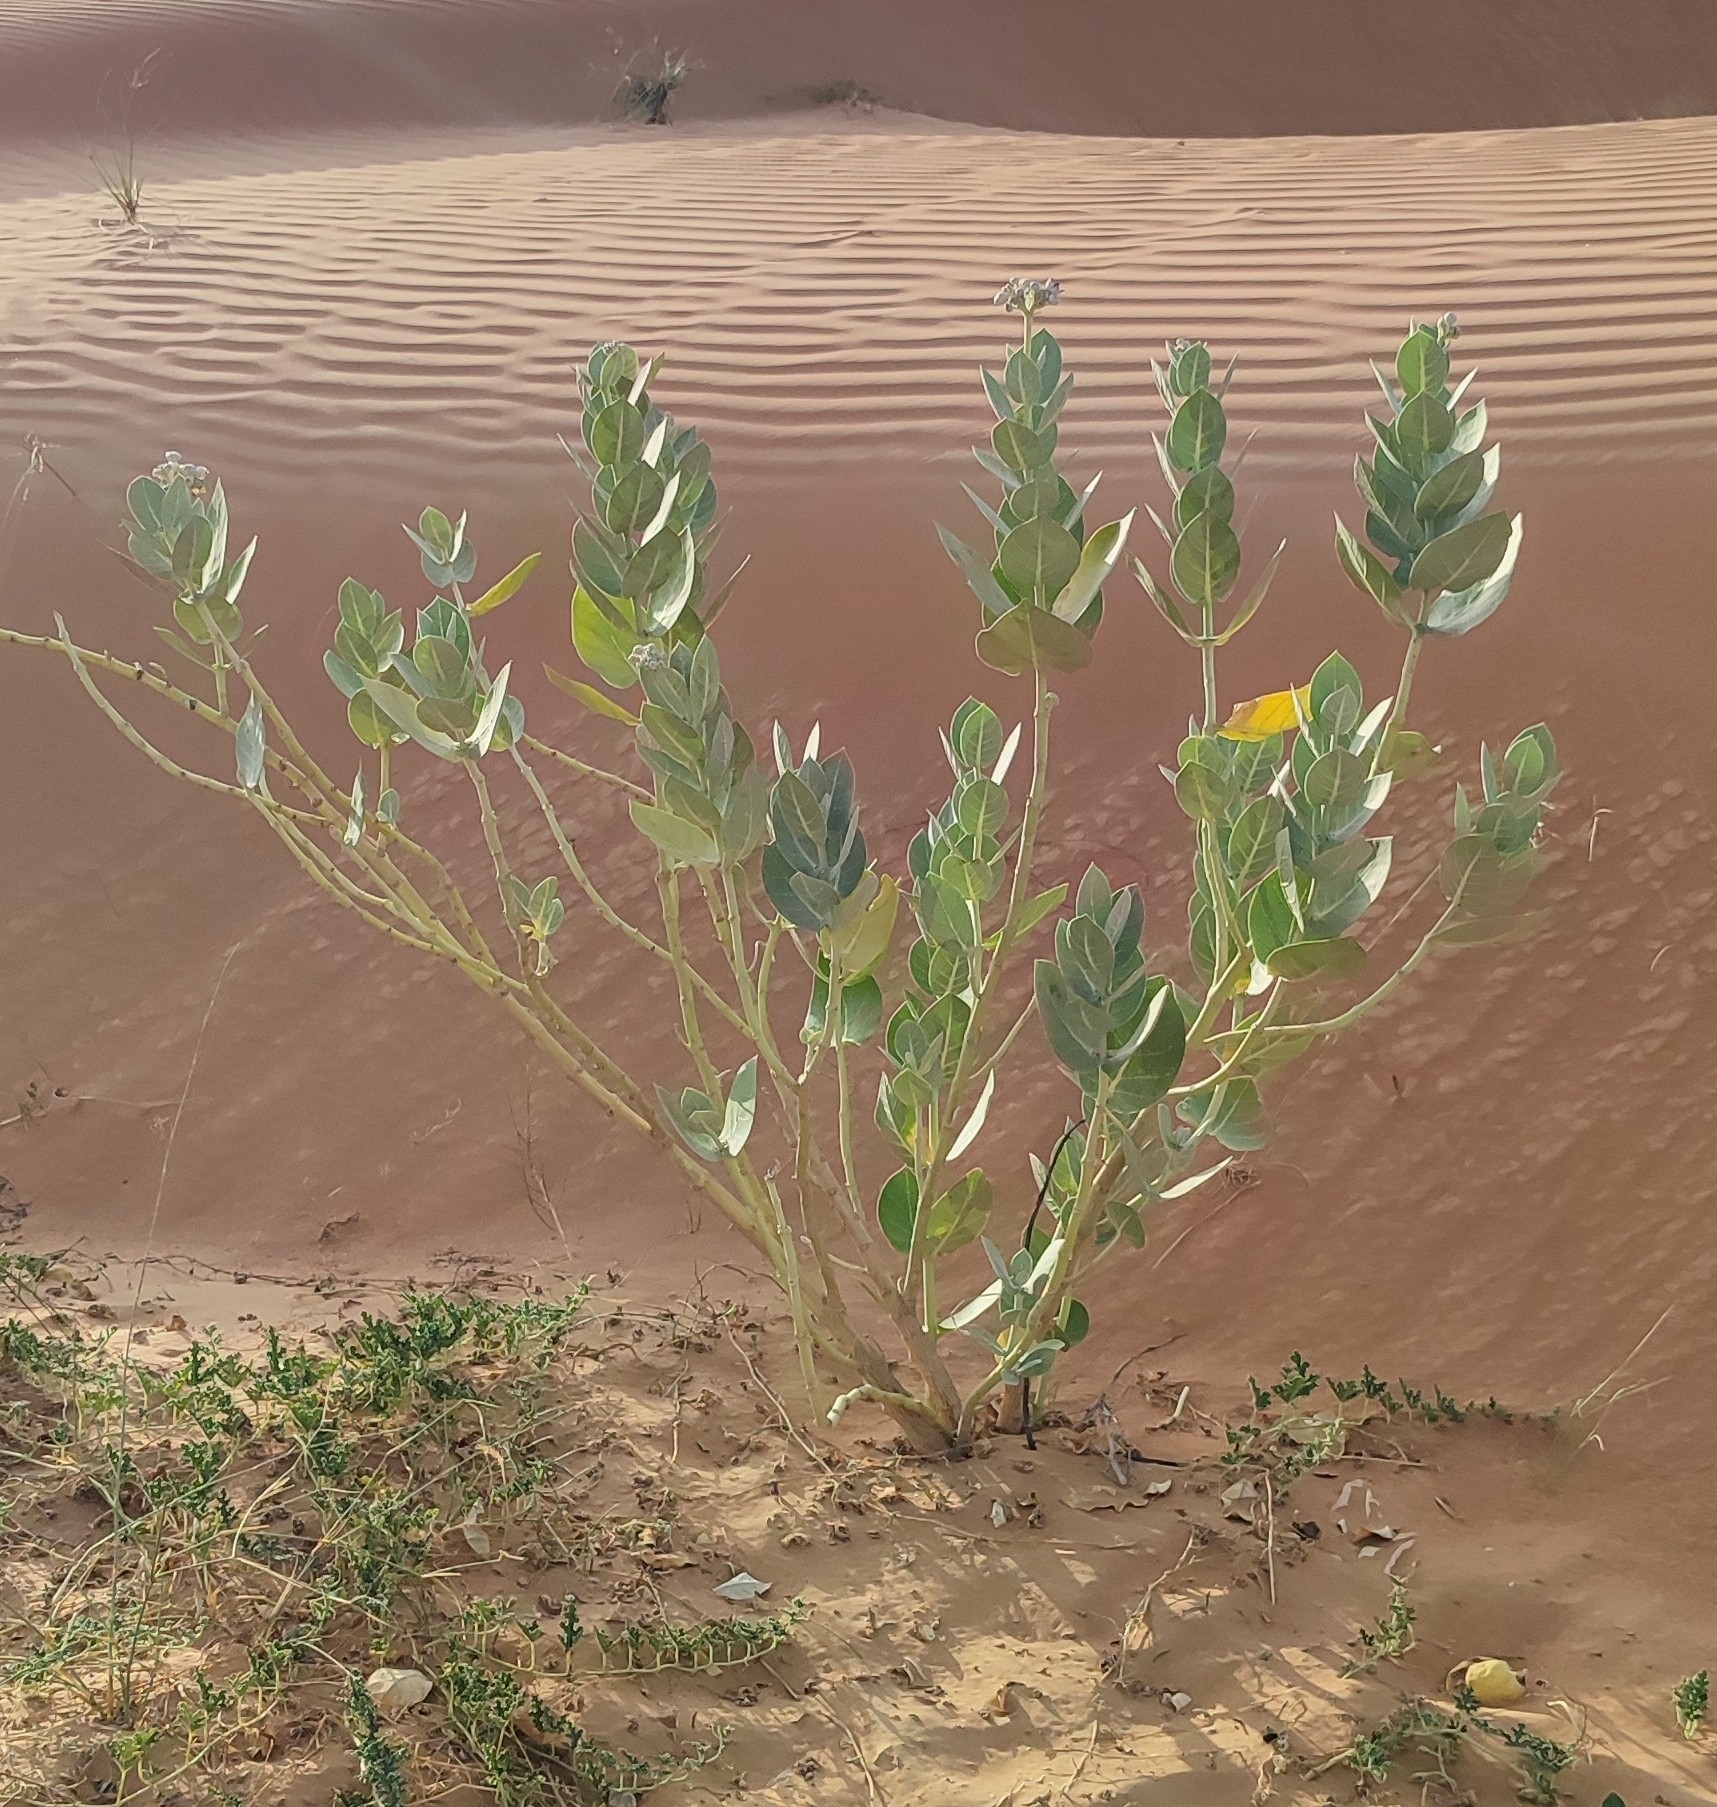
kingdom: Plantae
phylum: Tracheophyta
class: Magnoliopsida
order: Gentianales
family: Apocynaceae
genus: Calotropis
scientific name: Calotropis procera
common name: Roostertree
